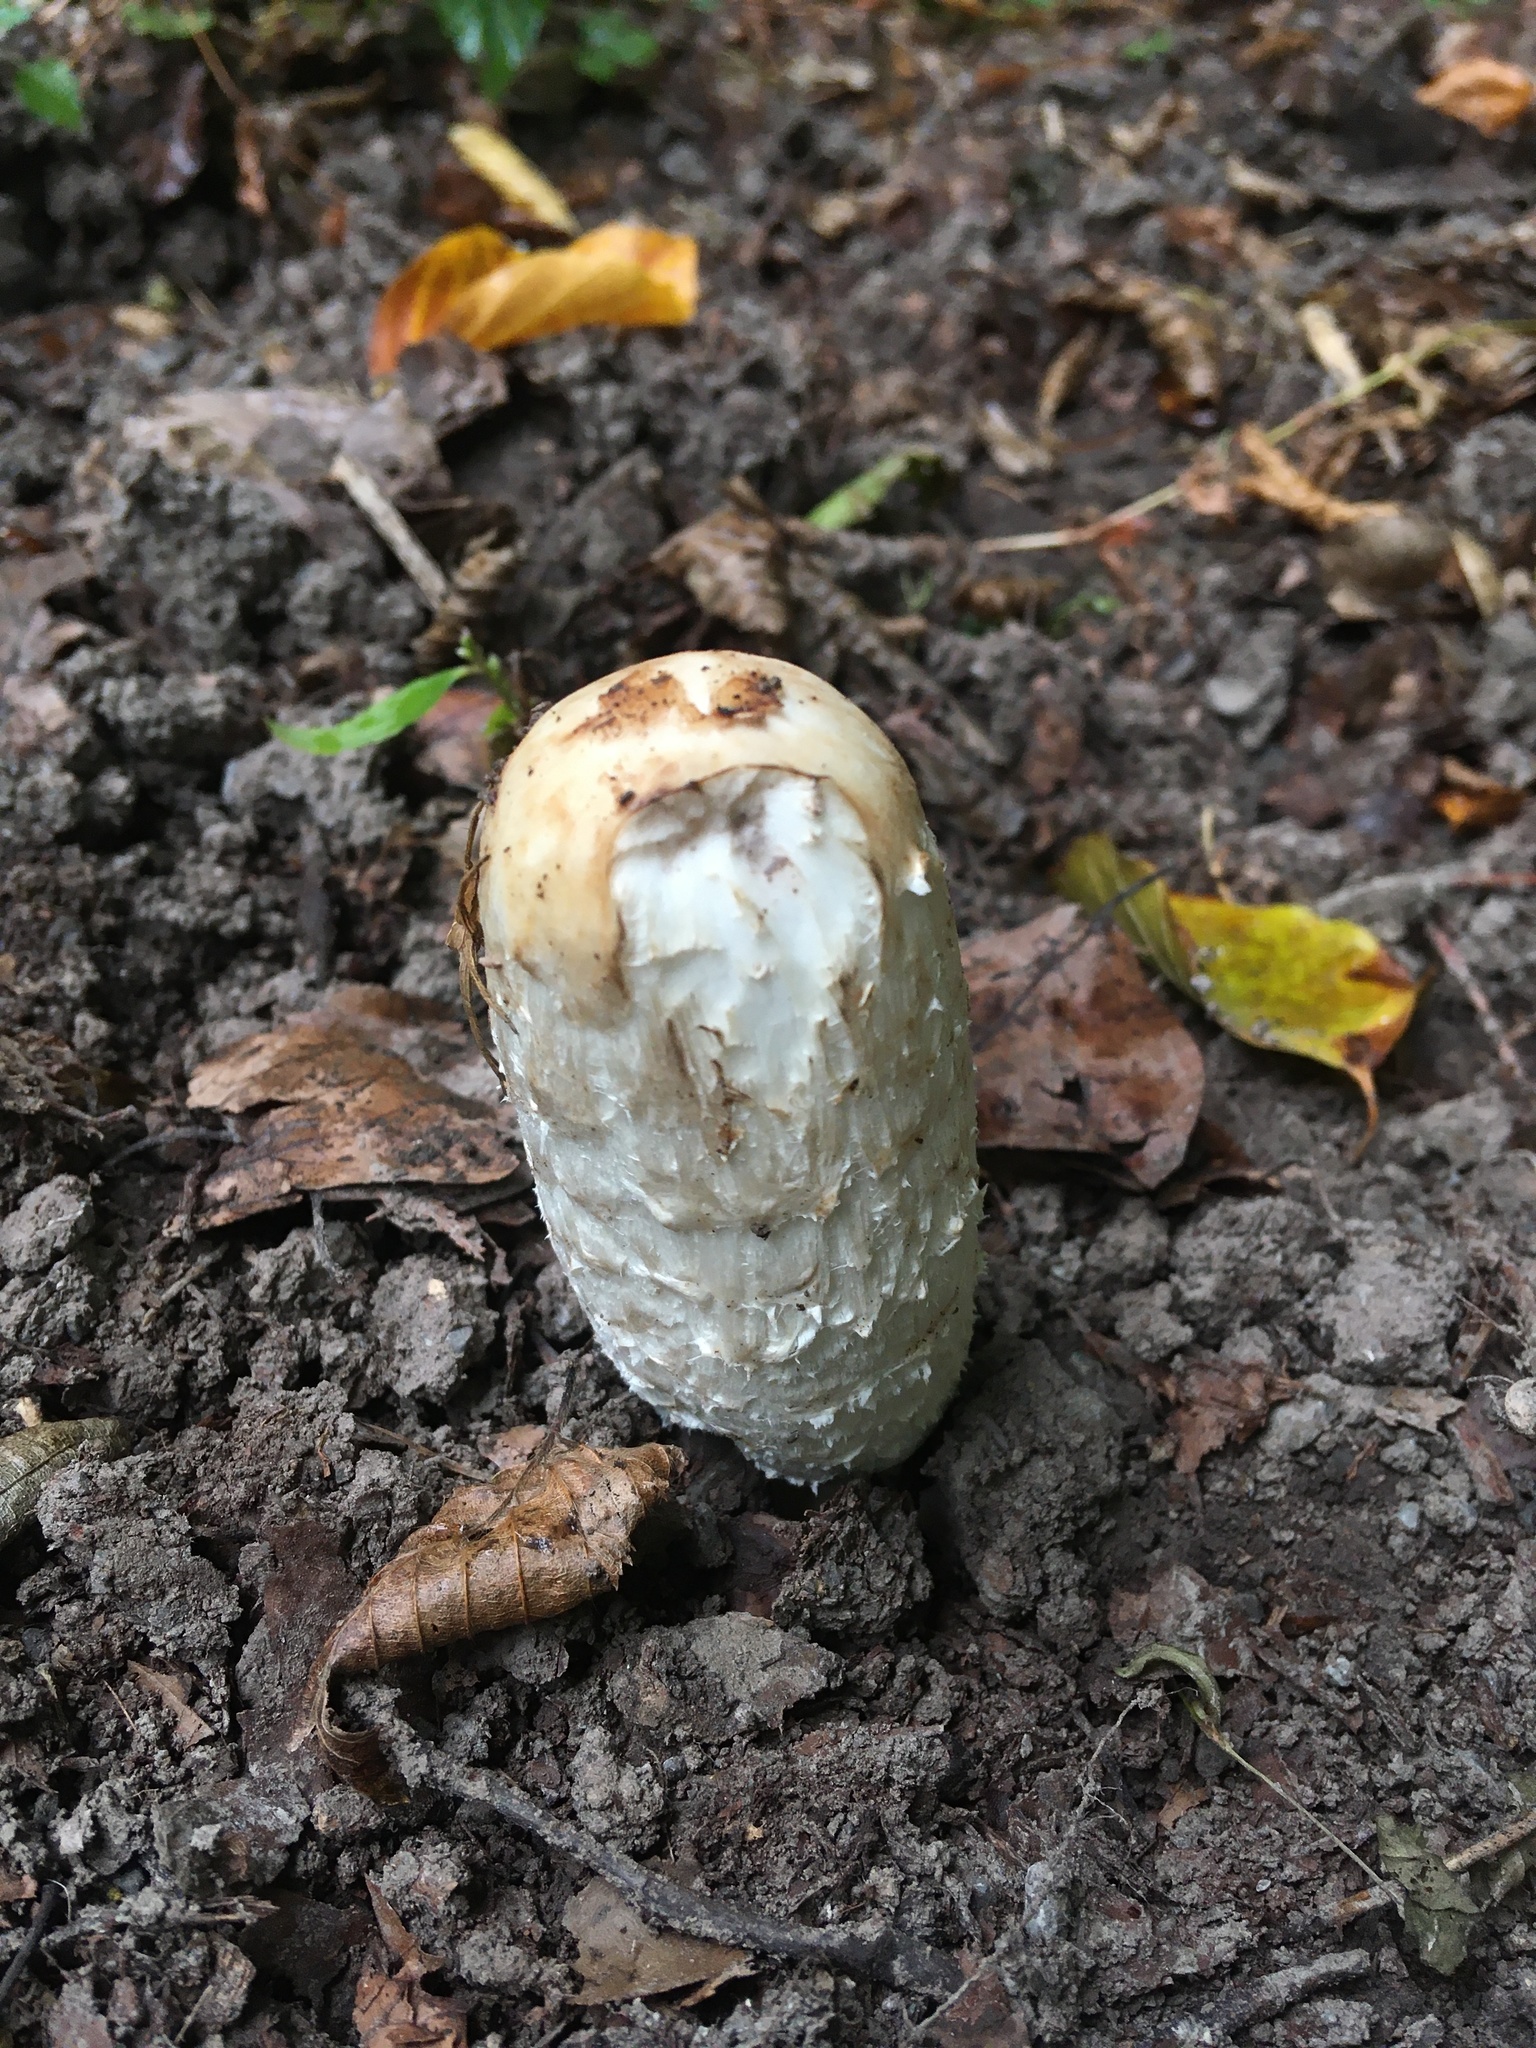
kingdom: Fungi
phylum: Basidiomycota
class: Agaricomycetes
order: Agaricales
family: Agaricaceae
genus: Coprinus
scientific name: Coprinus comatus
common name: Lawyer's wig
